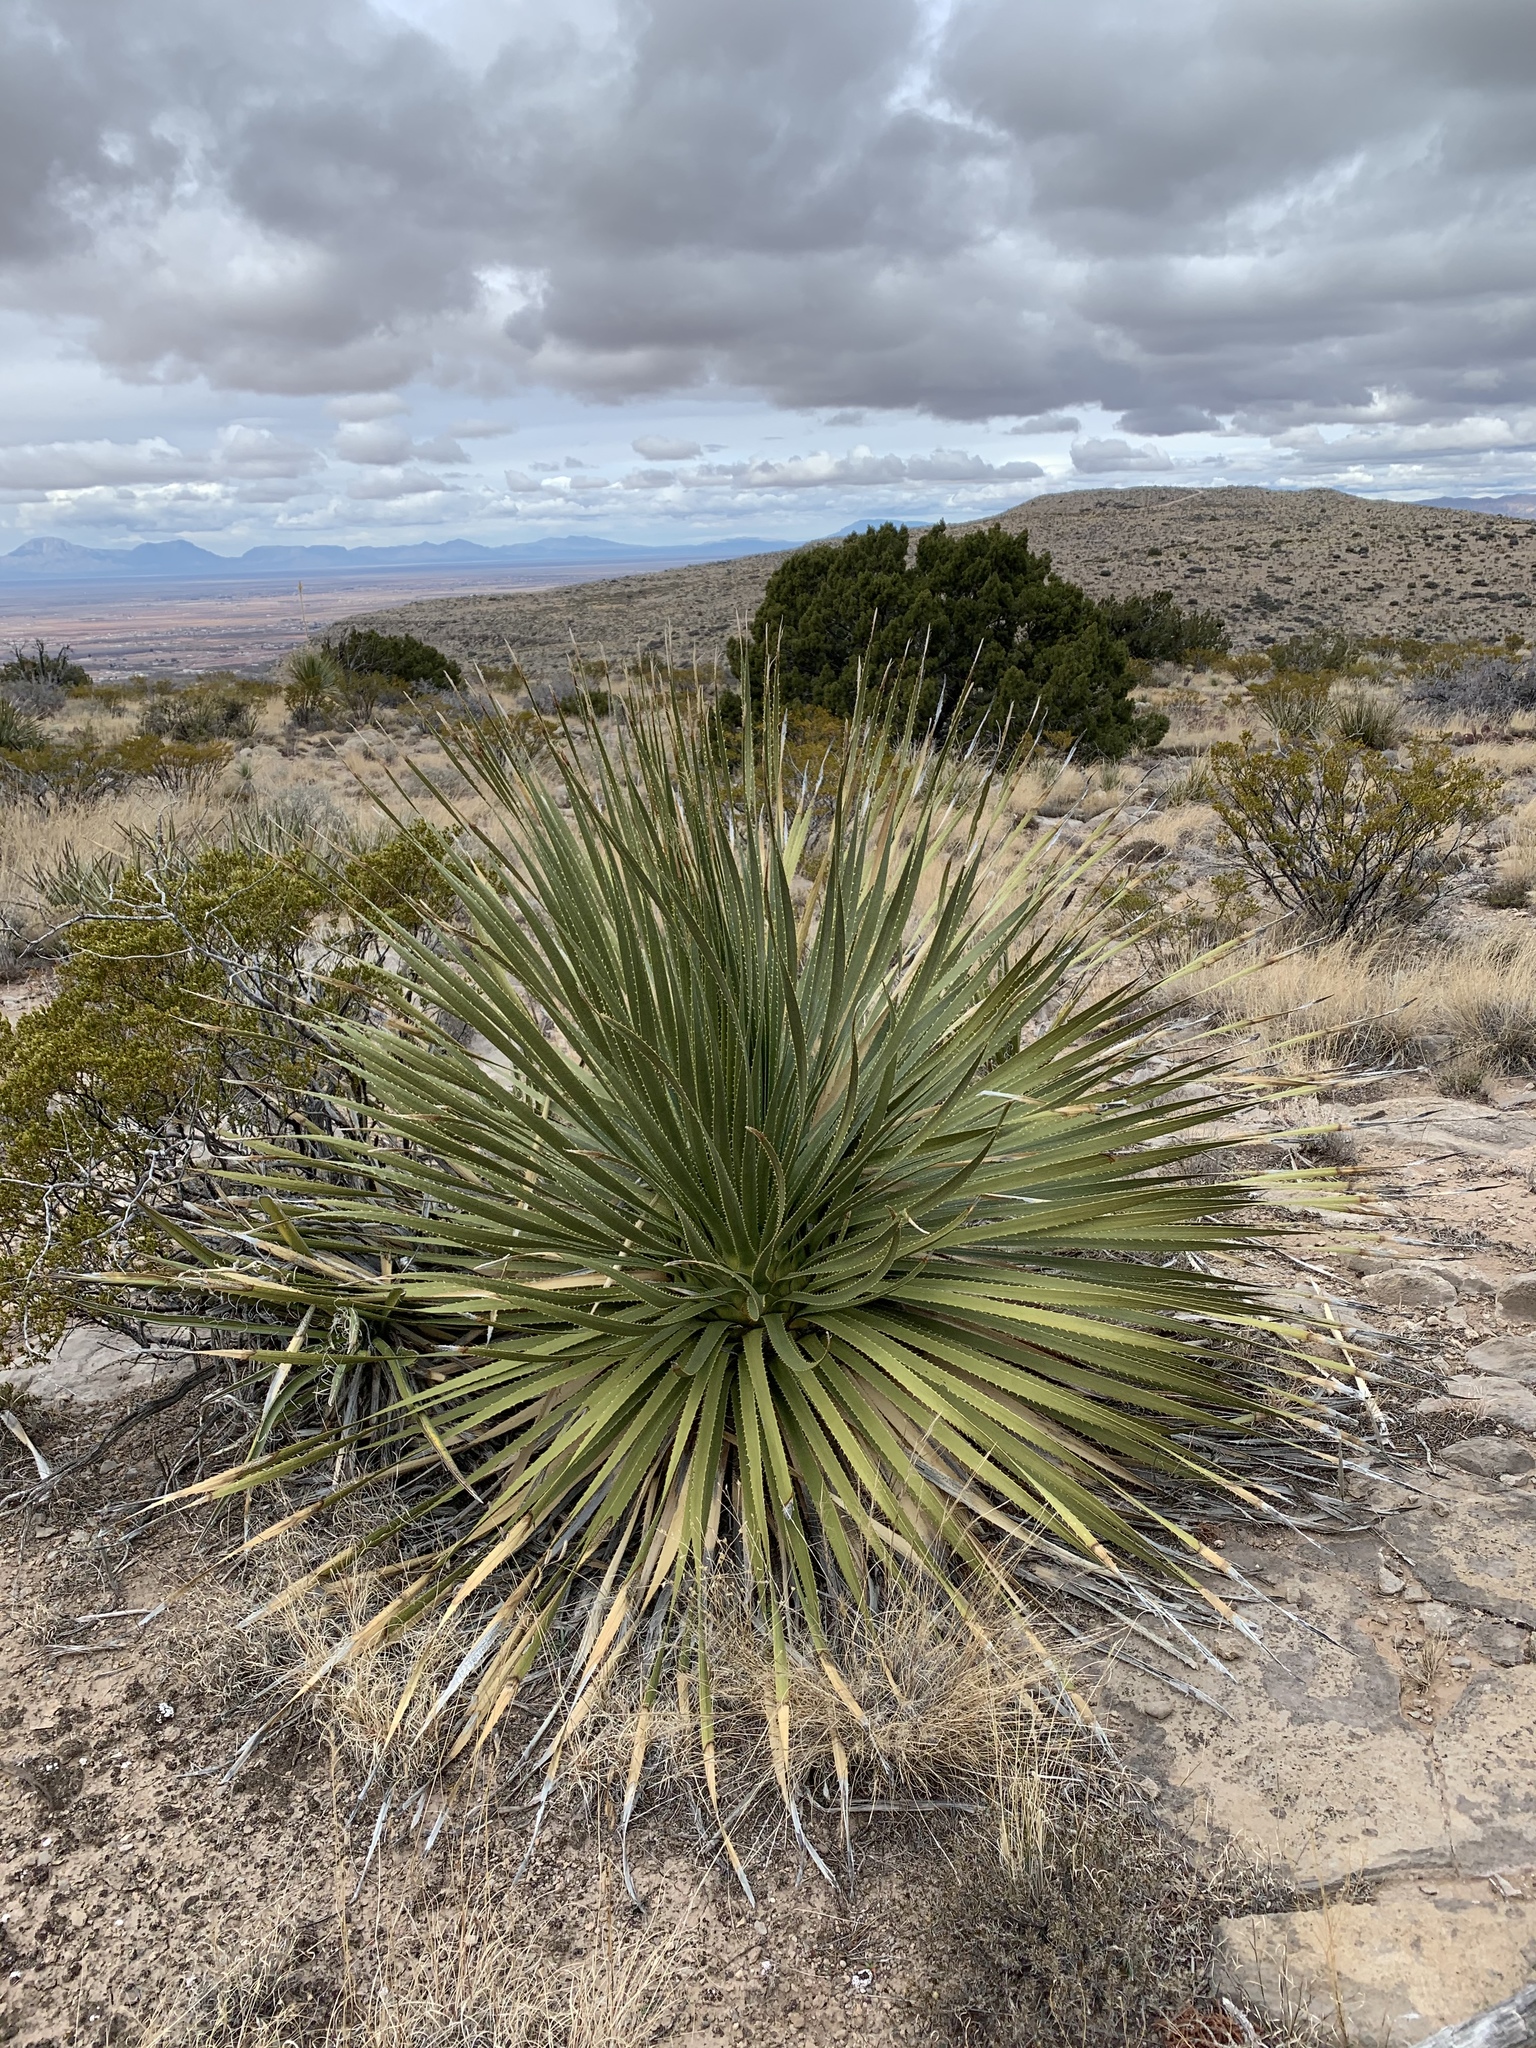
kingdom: Plantae
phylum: Tracheophyta
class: Liliopsida
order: Asparagales
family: Asparagaceae
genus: Dasylirion
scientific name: Dasylirion wheeleri
